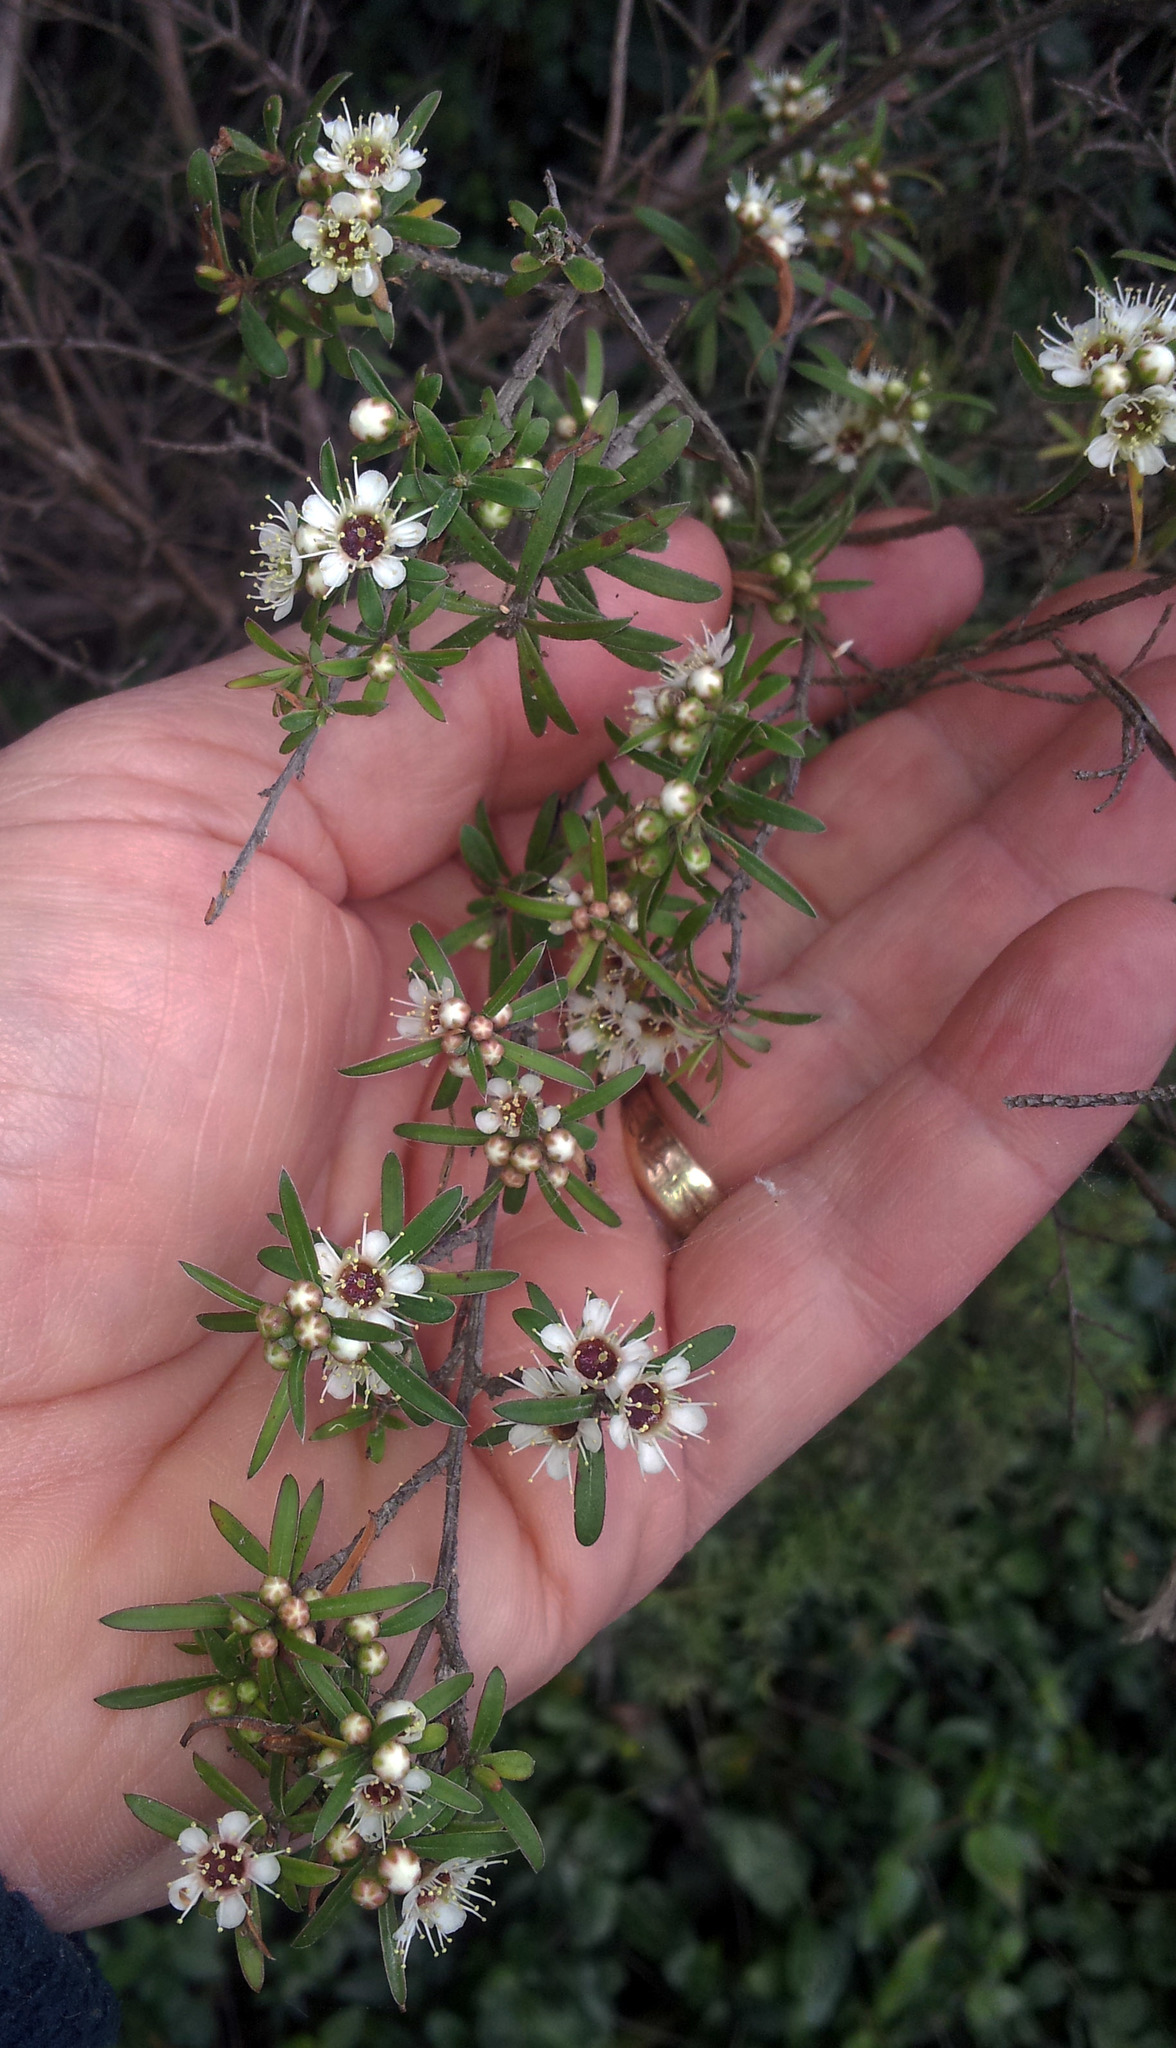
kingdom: Plantae
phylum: Tracheophyta
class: Magnoliopsida
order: Myrtales
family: Myrtaceae
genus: Kunzea
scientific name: Kunzea robusta
